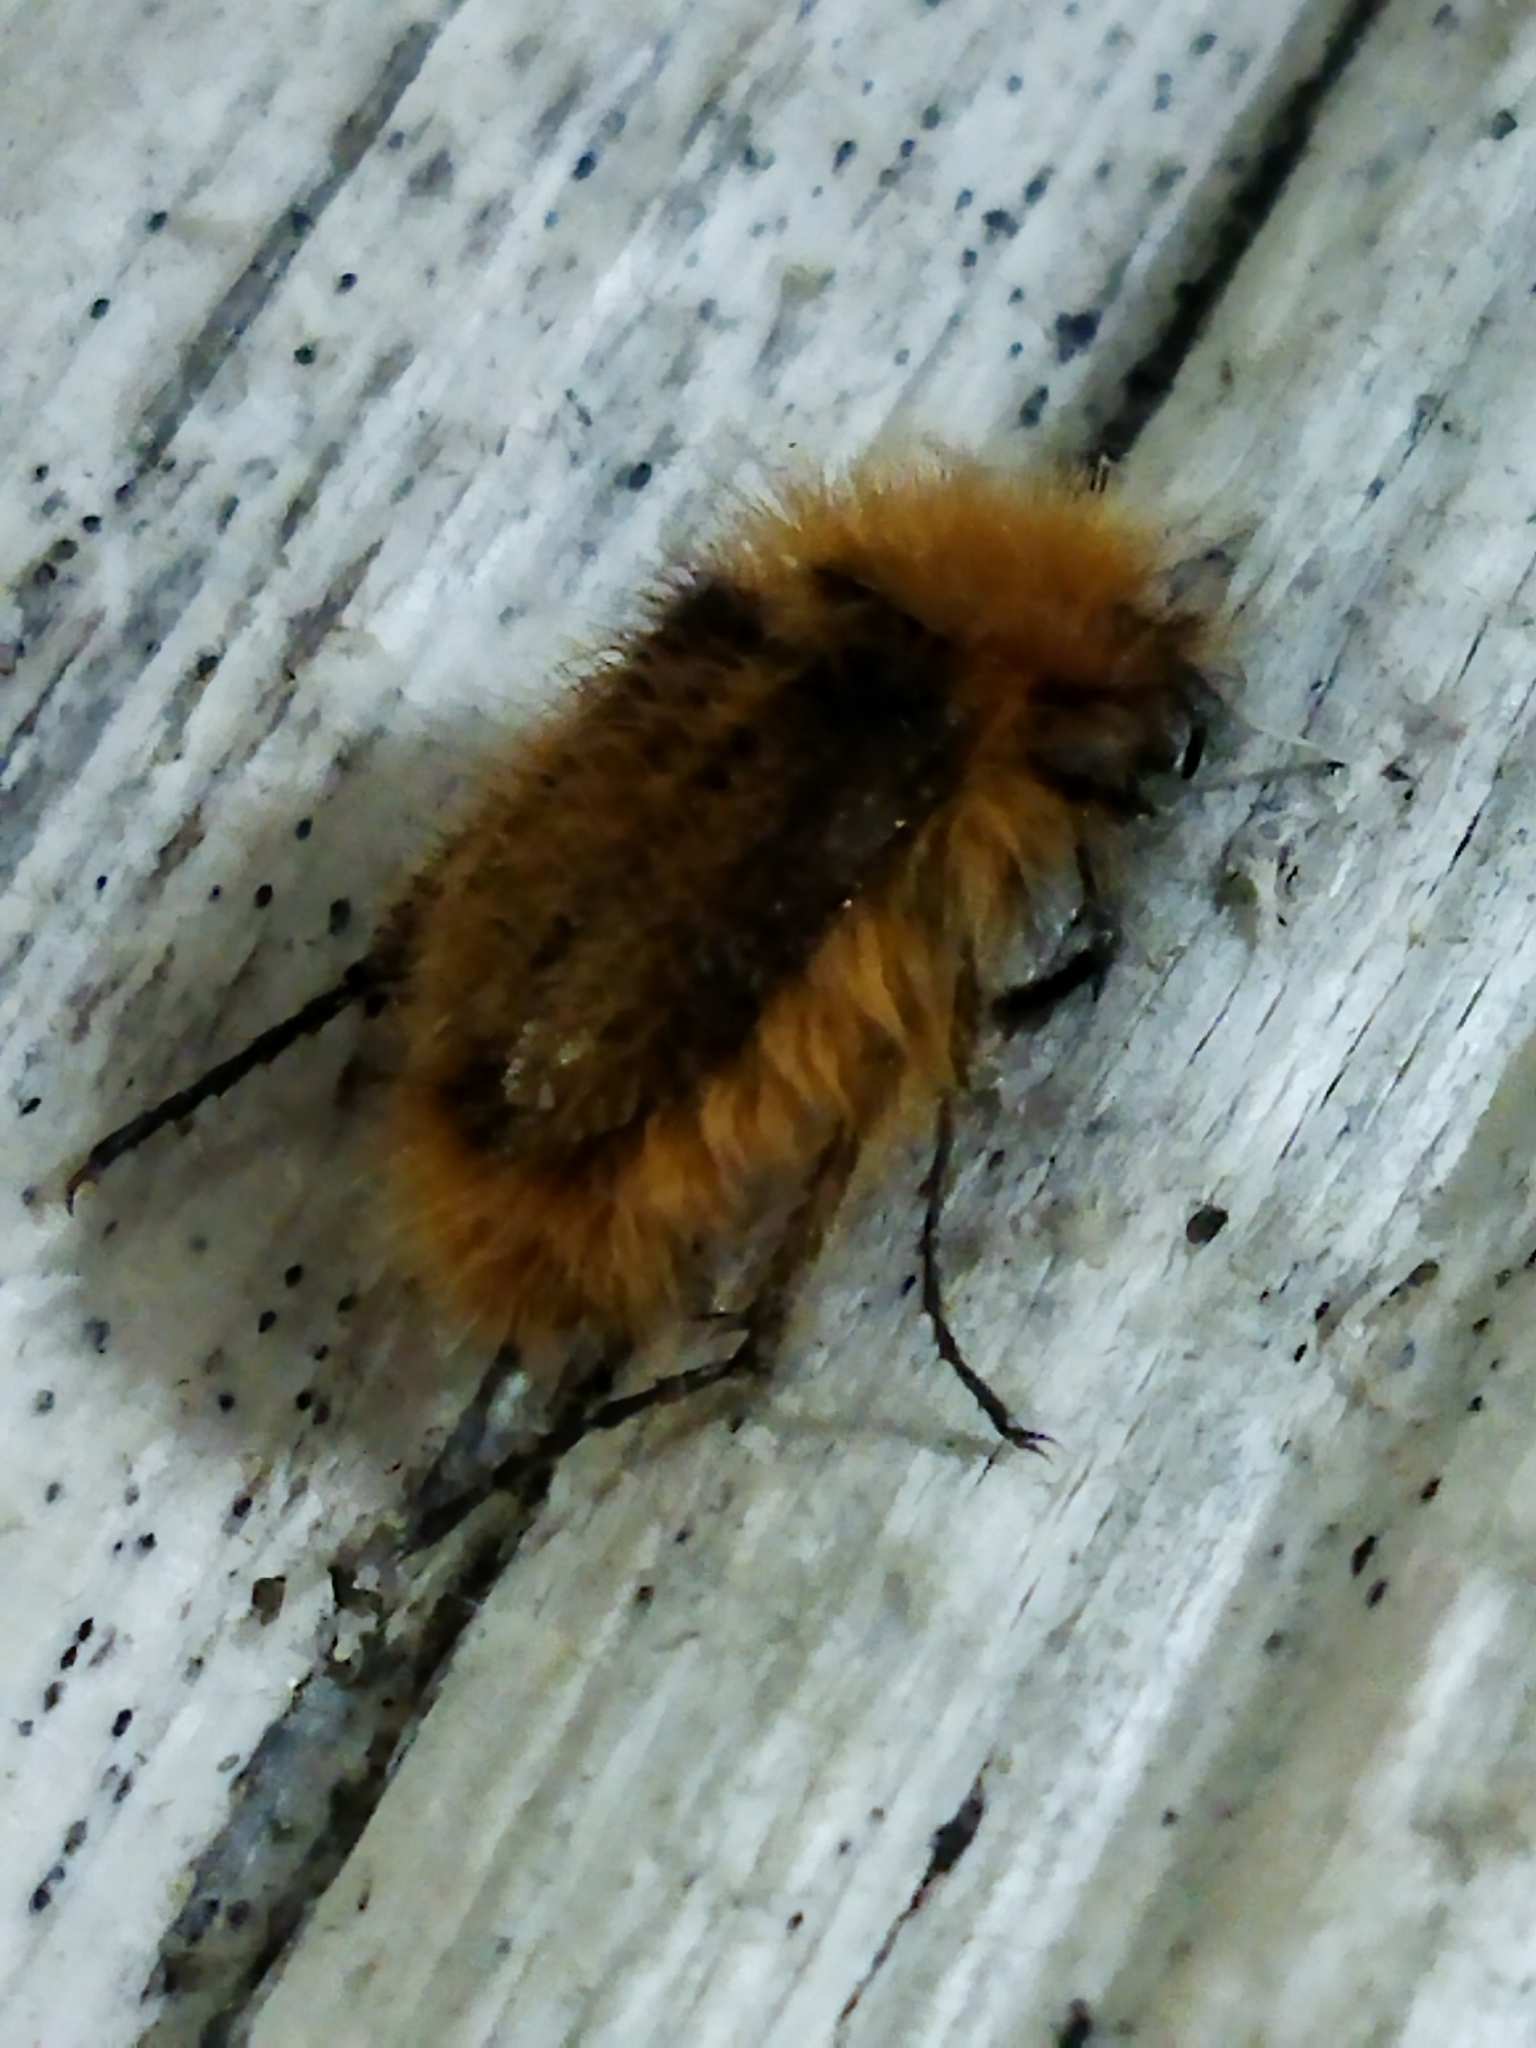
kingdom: Animalia
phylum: Arthropoda
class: Insecta
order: Coleoptera
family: Glaphyridae
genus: Pygopleurus
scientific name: Pygopleurus vulpes
